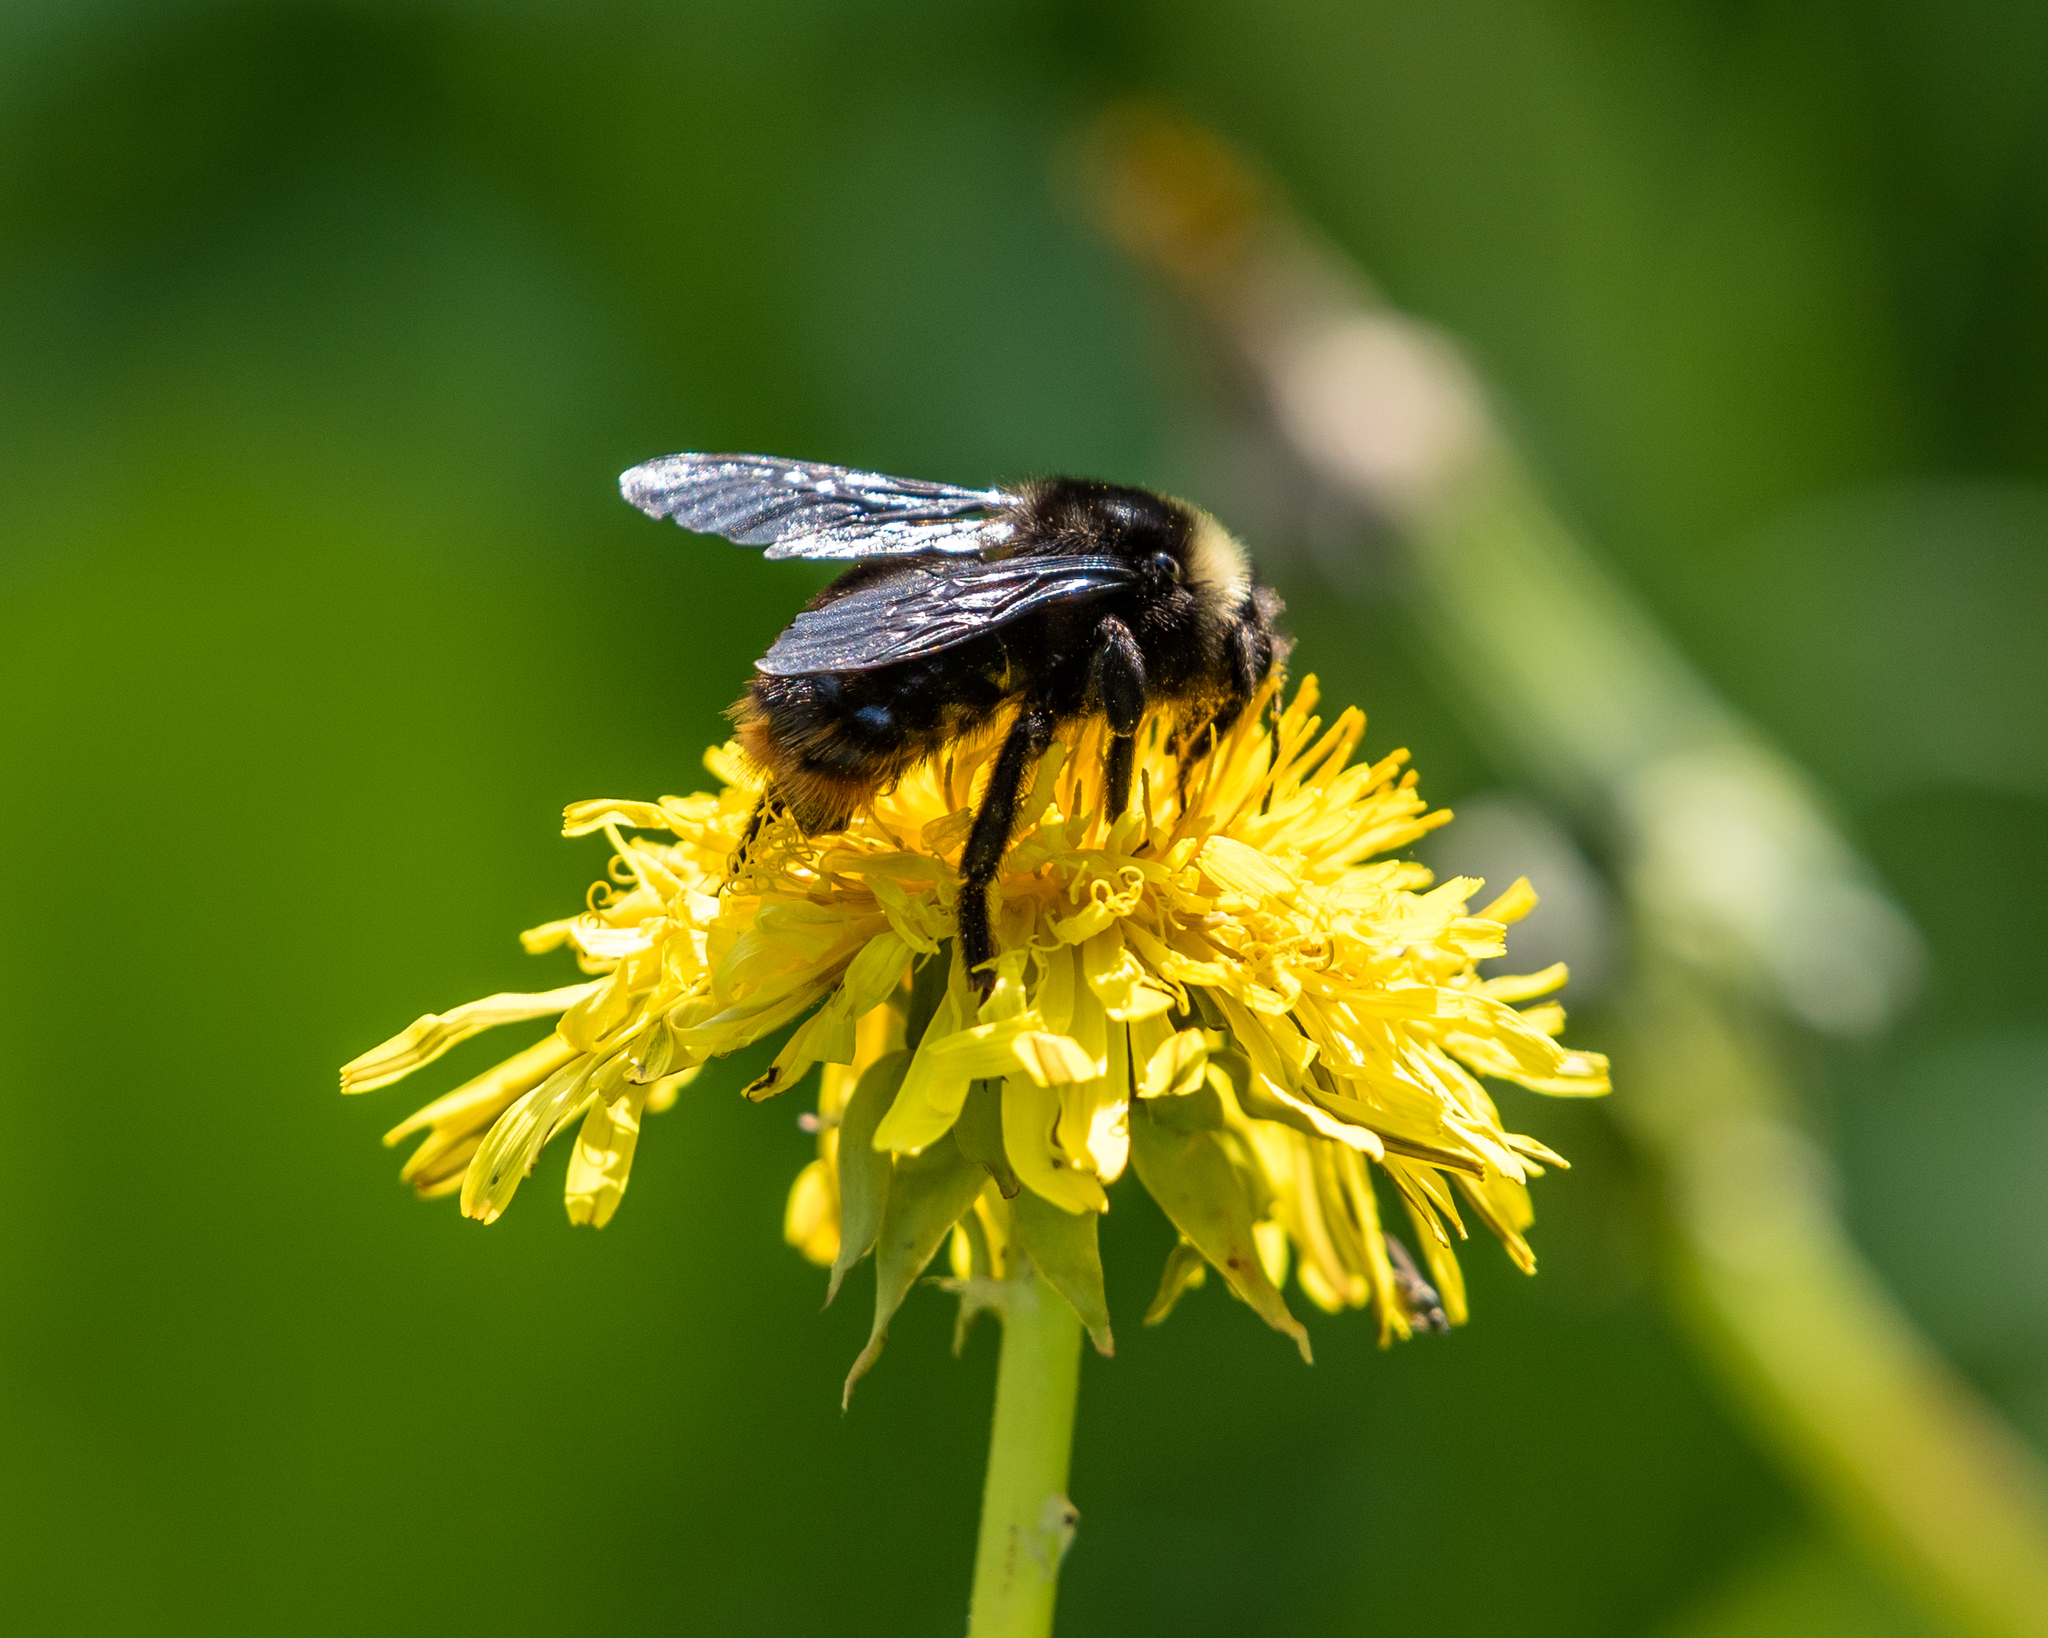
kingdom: Animalia
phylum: Arthropoda
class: Insecta
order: Hymenoptera
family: Apidae
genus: Bombus
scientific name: Bombus rupestris
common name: Hill cuckoo-bee
